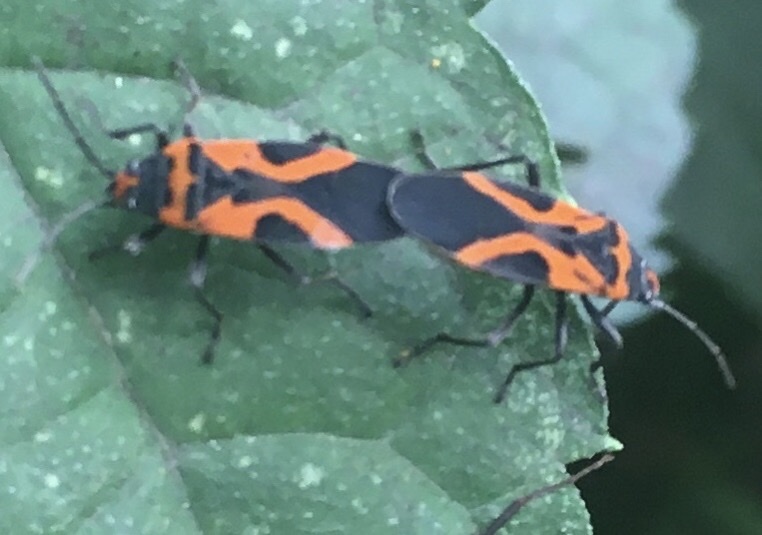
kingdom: Animalia
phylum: Arthropoda
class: Insecta
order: Hemiptera
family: Lygaeidae
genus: Lygaeus
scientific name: Lygaeus turcicus
